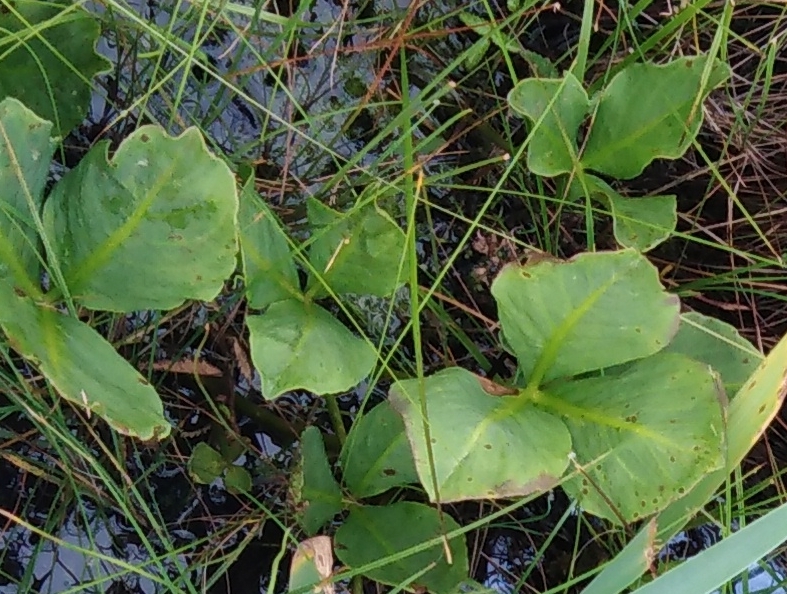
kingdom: Plantae
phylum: Tracheophyta
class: Magnoliopsida
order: Asterales
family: Menyanthaceae
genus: Menyanthes
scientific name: Menyanthes trifoliata
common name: Bogbean
